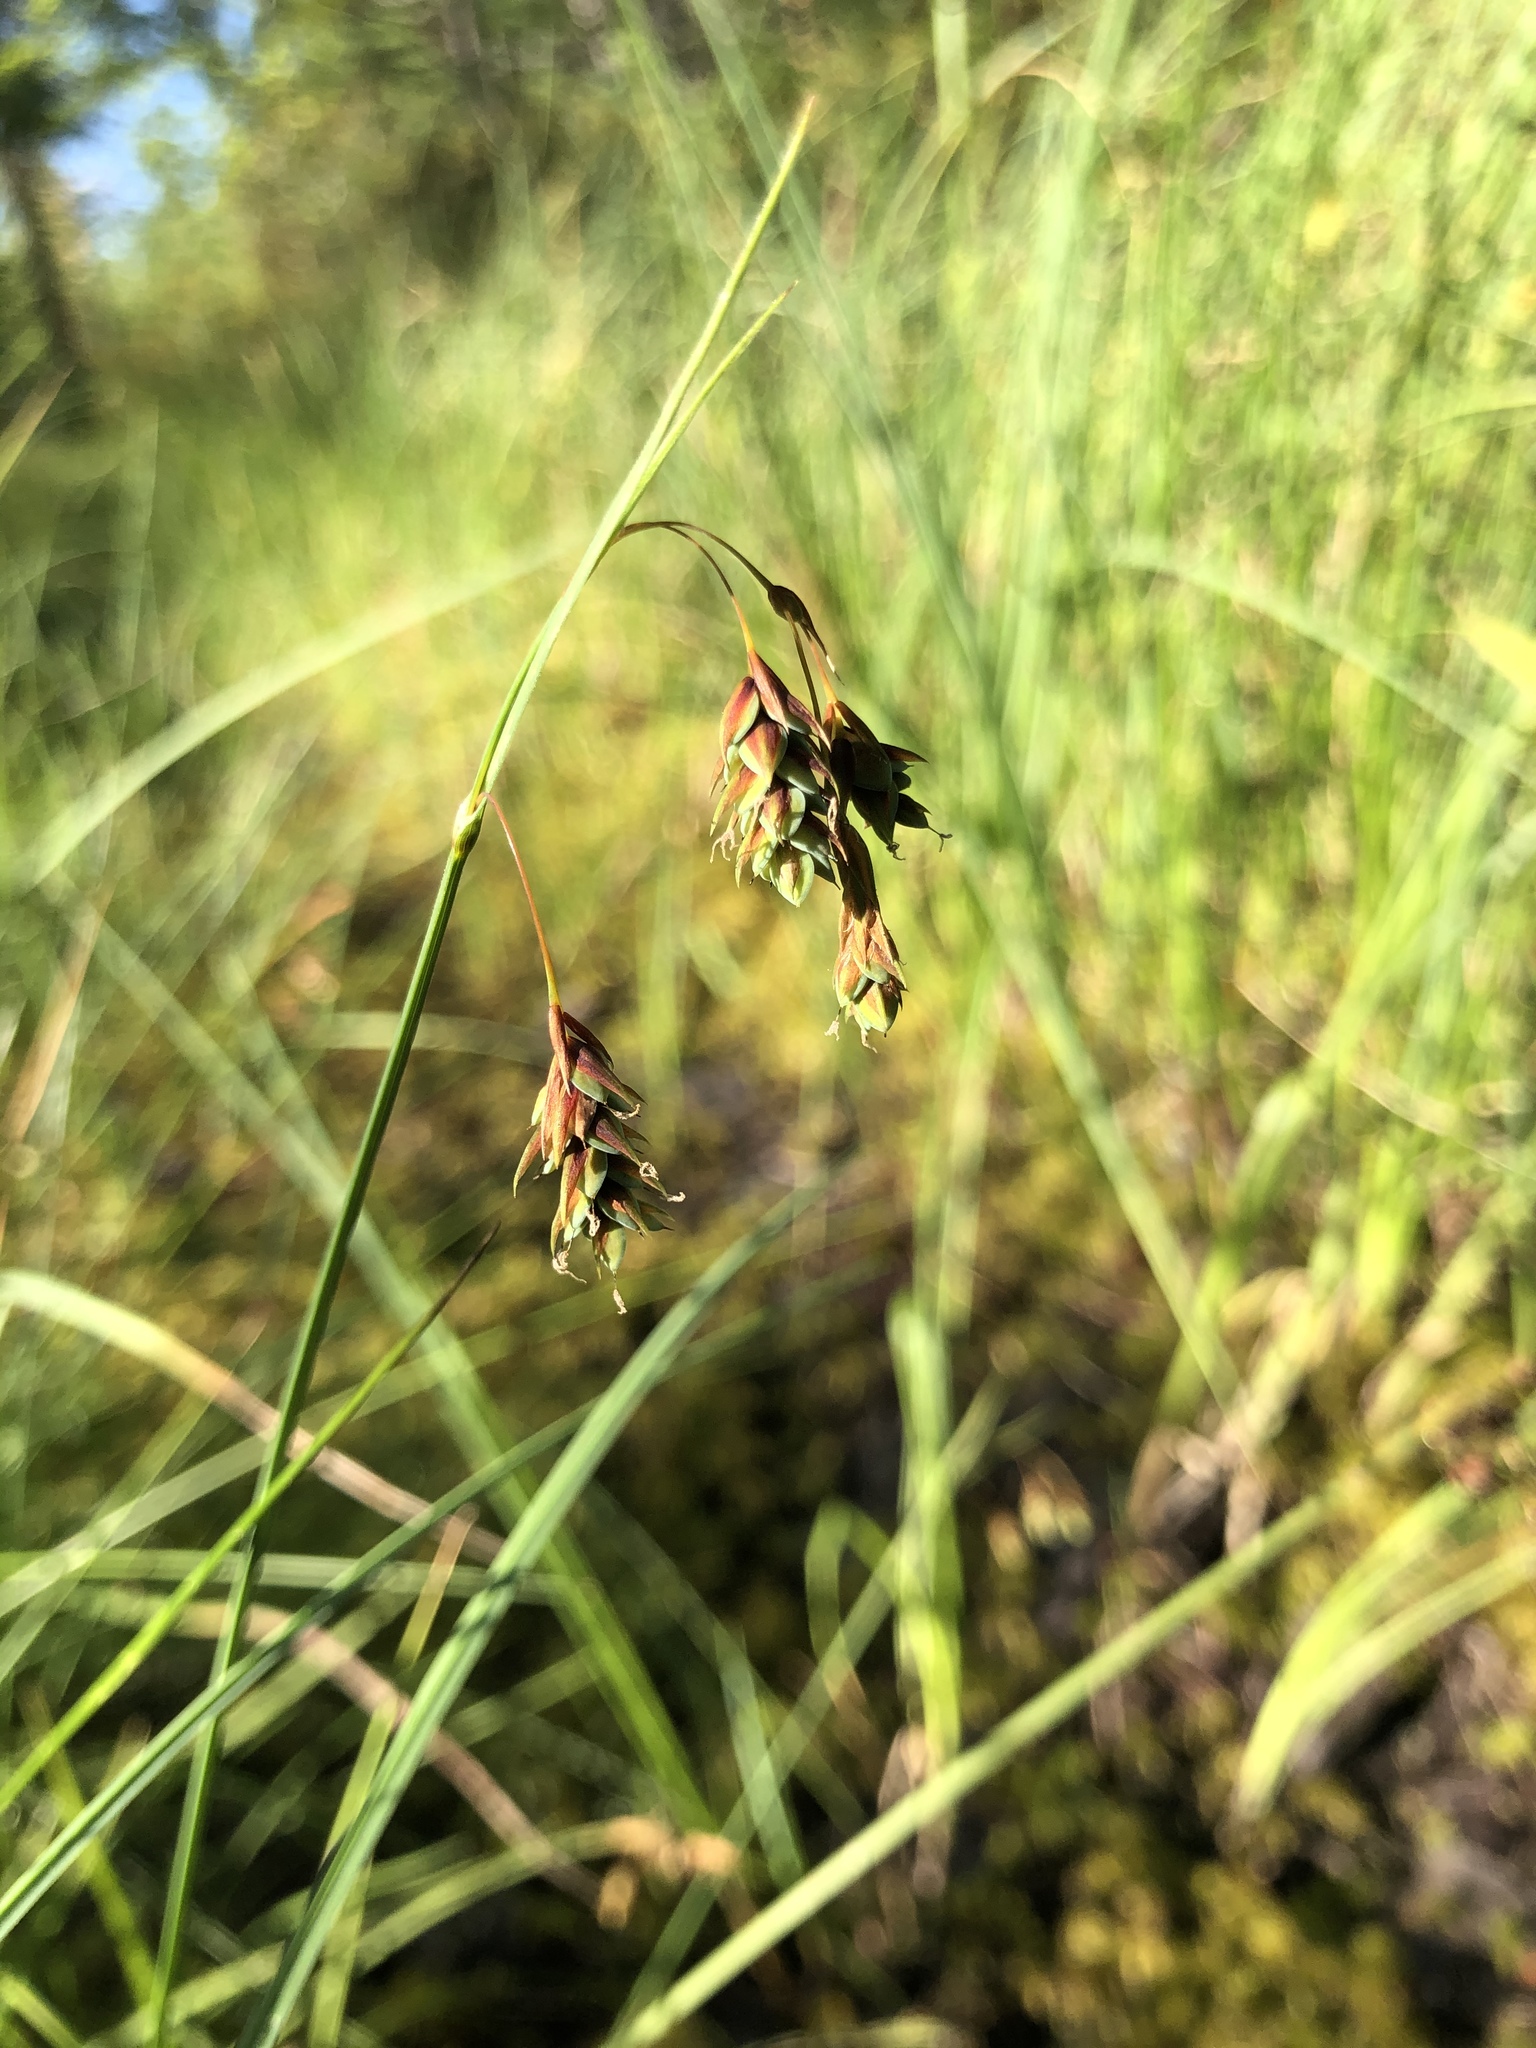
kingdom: Plantae
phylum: Tracheophyta
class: Liliopsida
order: Poales
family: Cyperaceae
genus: Carex
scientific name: Carex limosa
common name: Bog sedge
